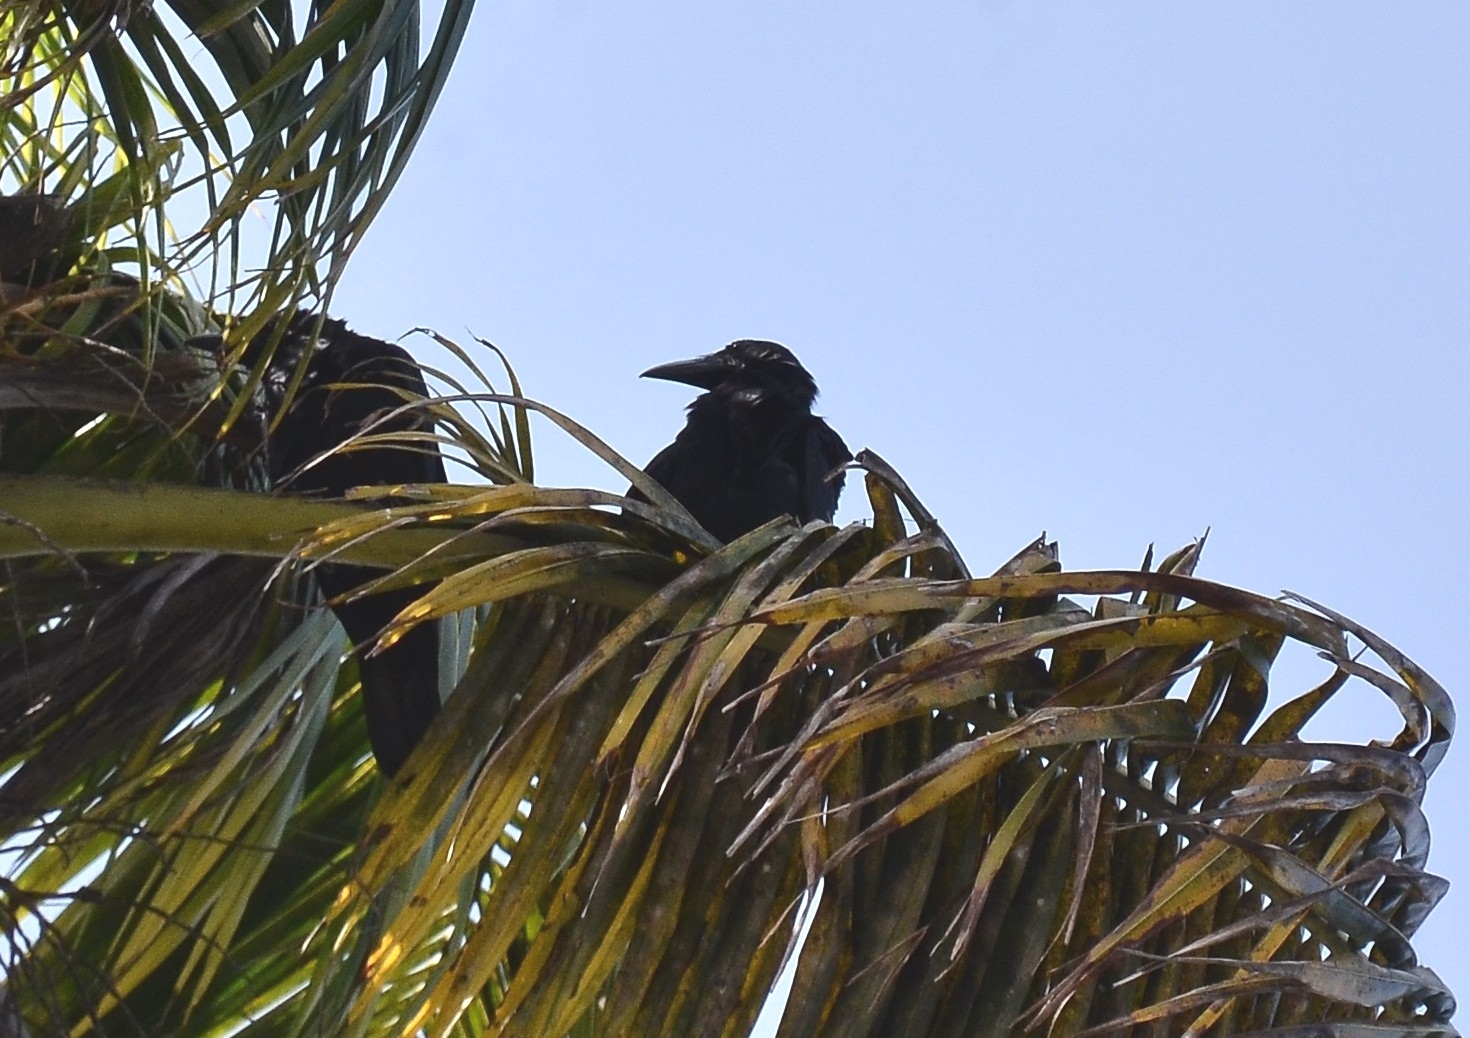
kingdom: Animalia
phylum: Chordata
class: Aves
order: Passeriformes
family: Corvidae
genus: Corvus
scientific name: Corvus macrorhynchos
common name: Large-billed crow
